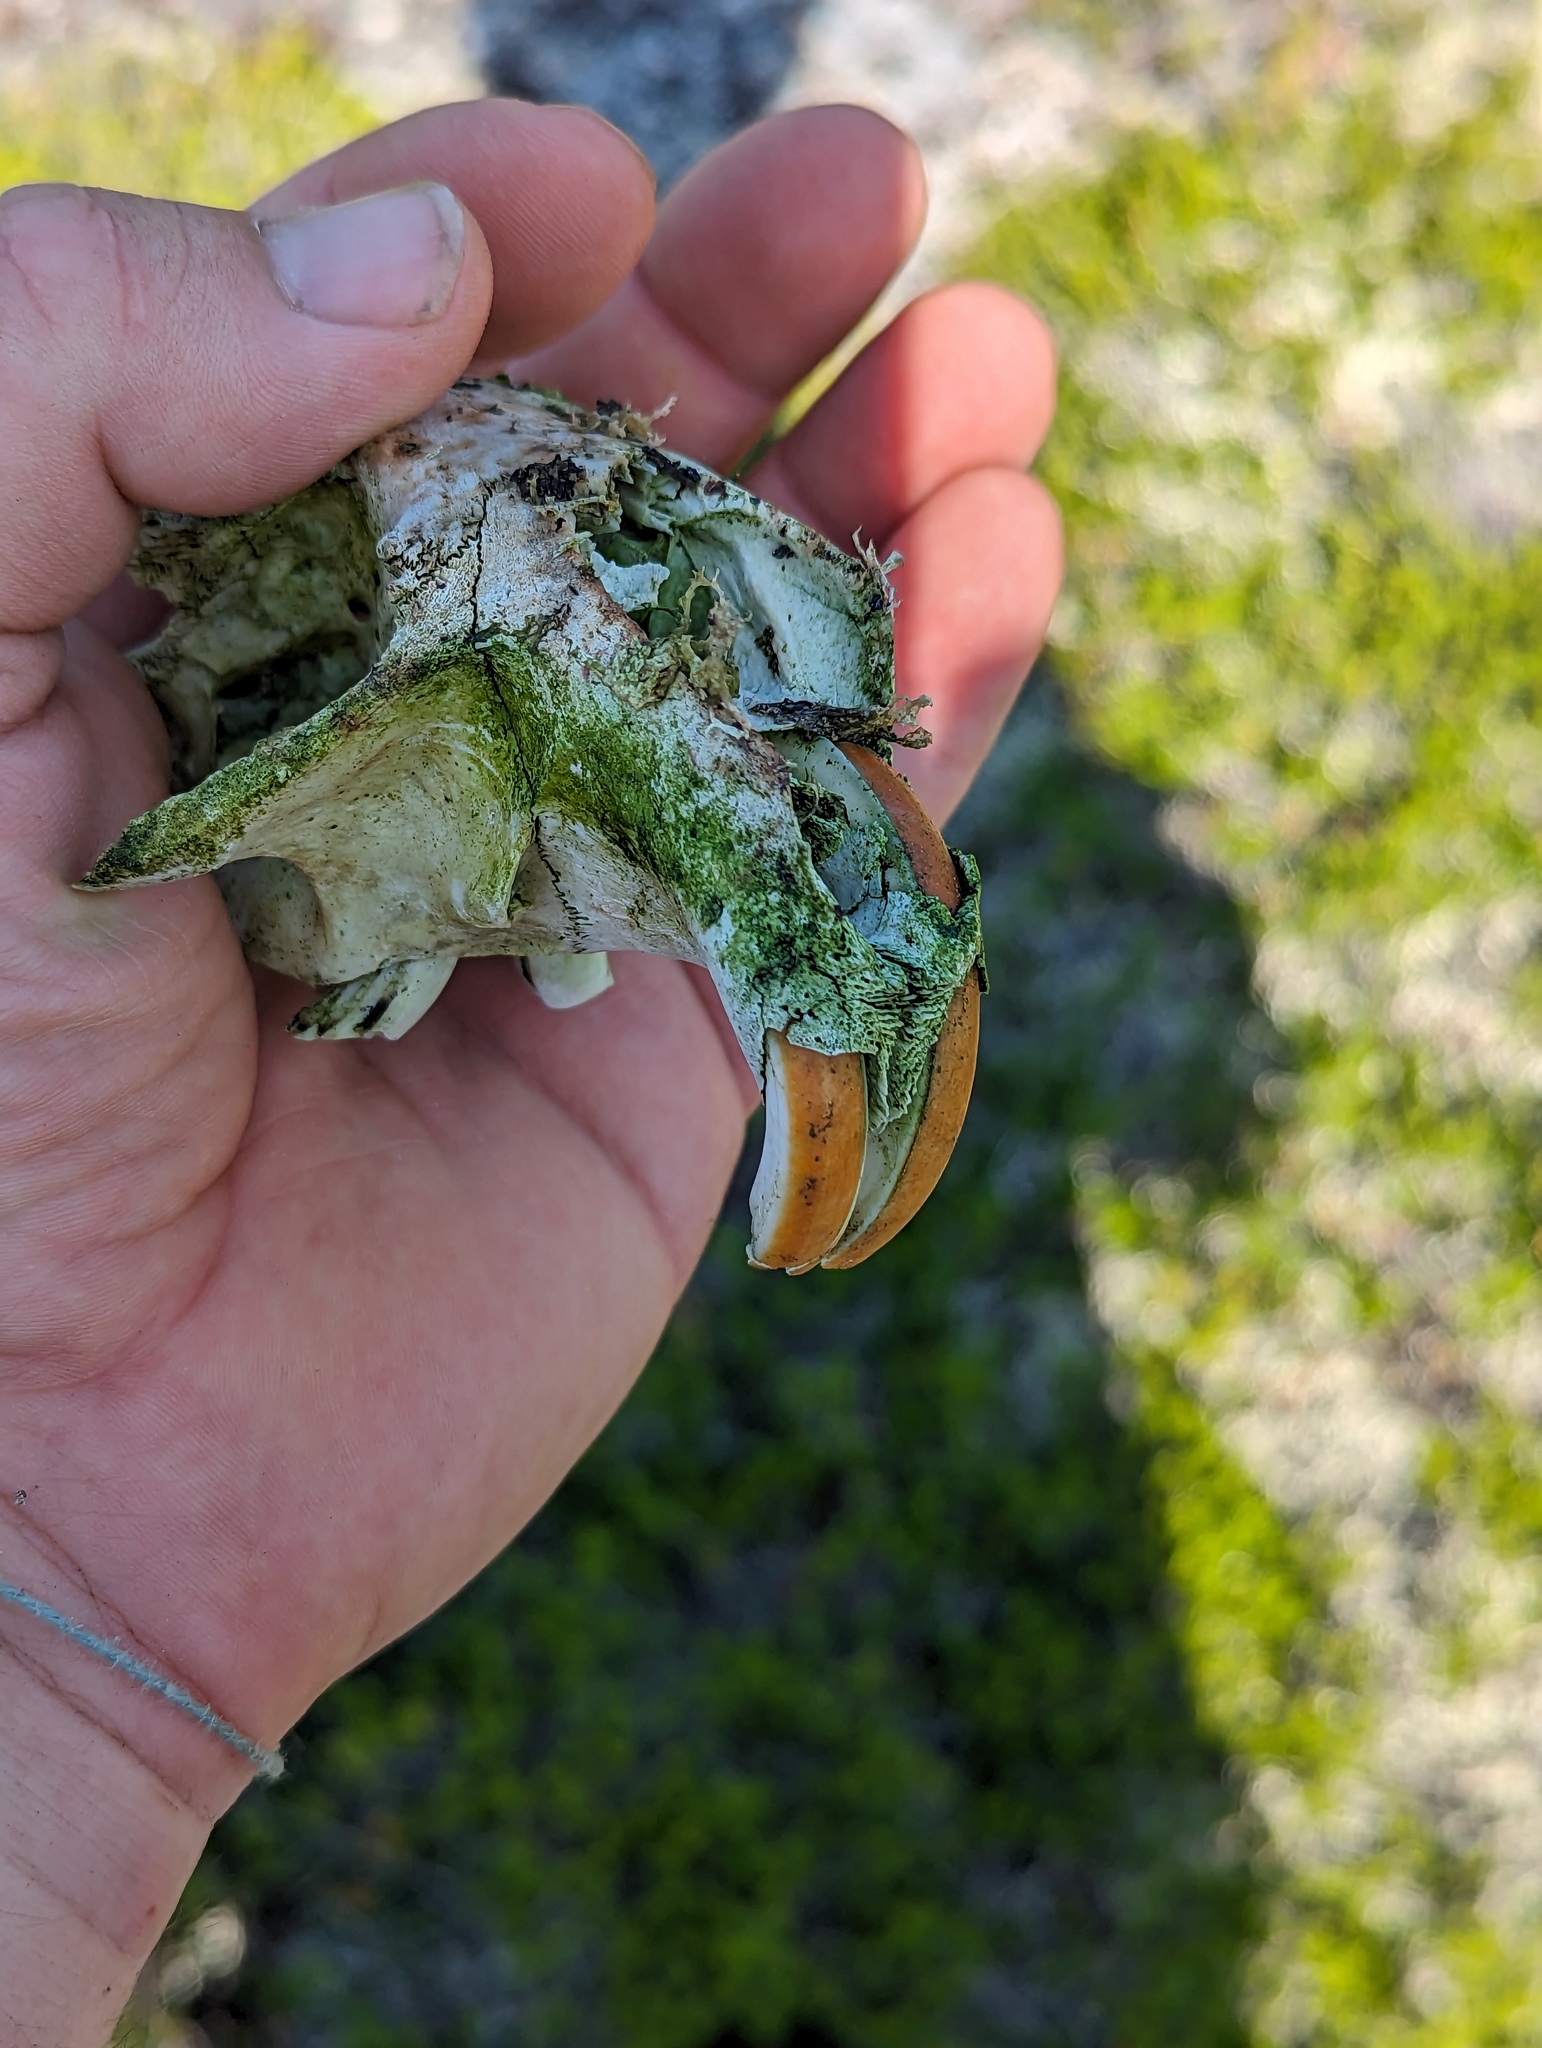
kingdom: Animalia
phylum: Chordata
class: Mammalia
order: Rodentia
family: Castoridae
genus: Castor
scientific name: Castor canadensis
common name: American beaver
